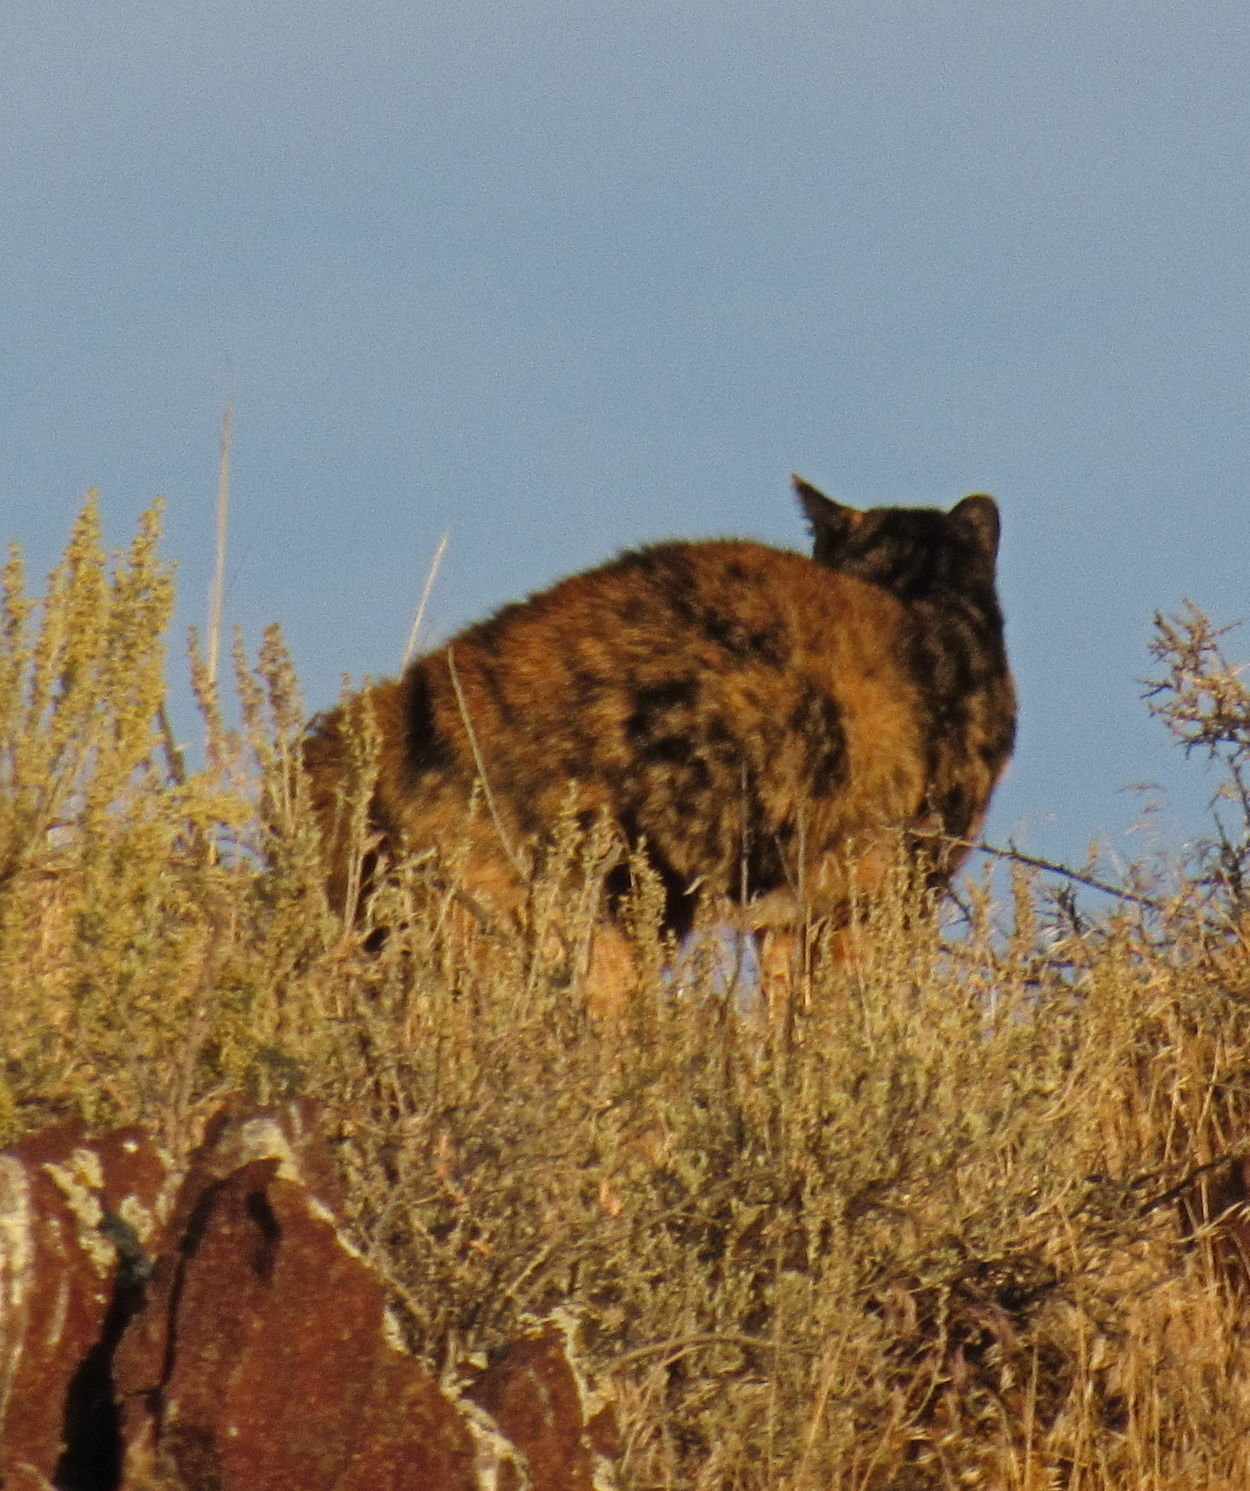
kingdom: Animalia
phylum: Chordata
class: Mammalia
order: Carnivora
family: Felidae
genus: Felis
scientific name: Felis catus
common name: Domestic cat
